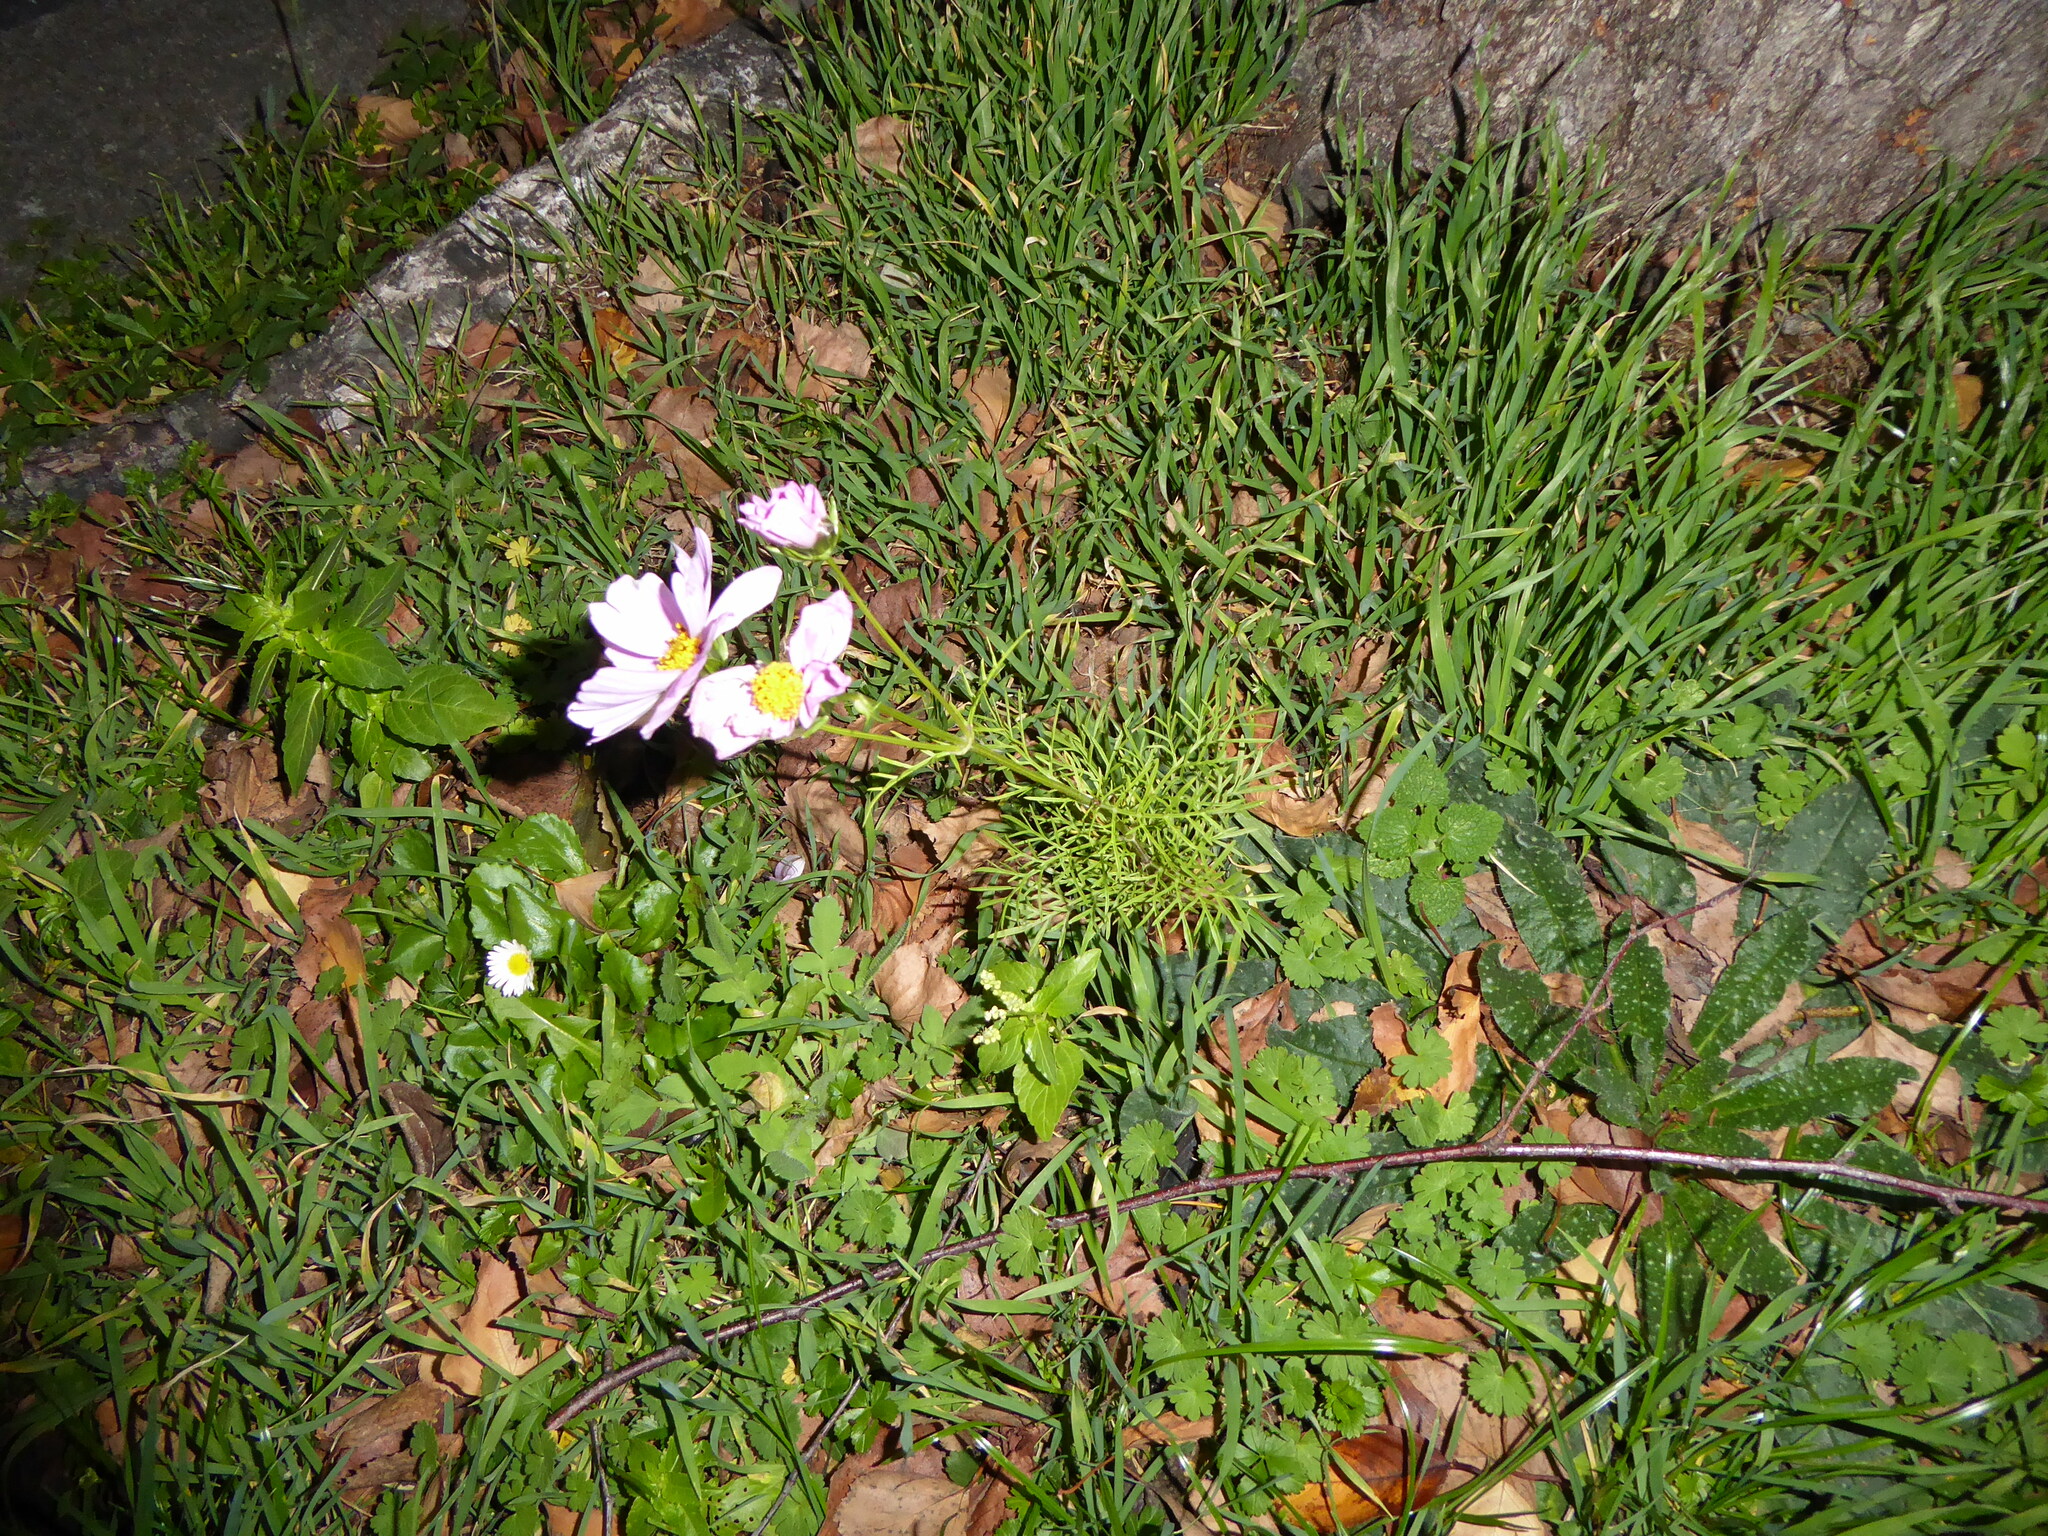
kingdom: Plantae
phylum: Tracheophyta
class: Magnoliopsida
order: Asterales
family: Asteraceae
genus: Cosmos
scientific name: Cosmos bipinnatus
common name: Garden cosmos
